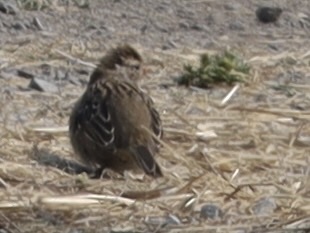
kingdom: Animalia
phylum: Chordata
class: Aves
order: Passeriformes
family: Passerellidae
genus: Zonotrichia
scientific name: Zonotrichia leucophrys
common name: White-crowned sparrow
